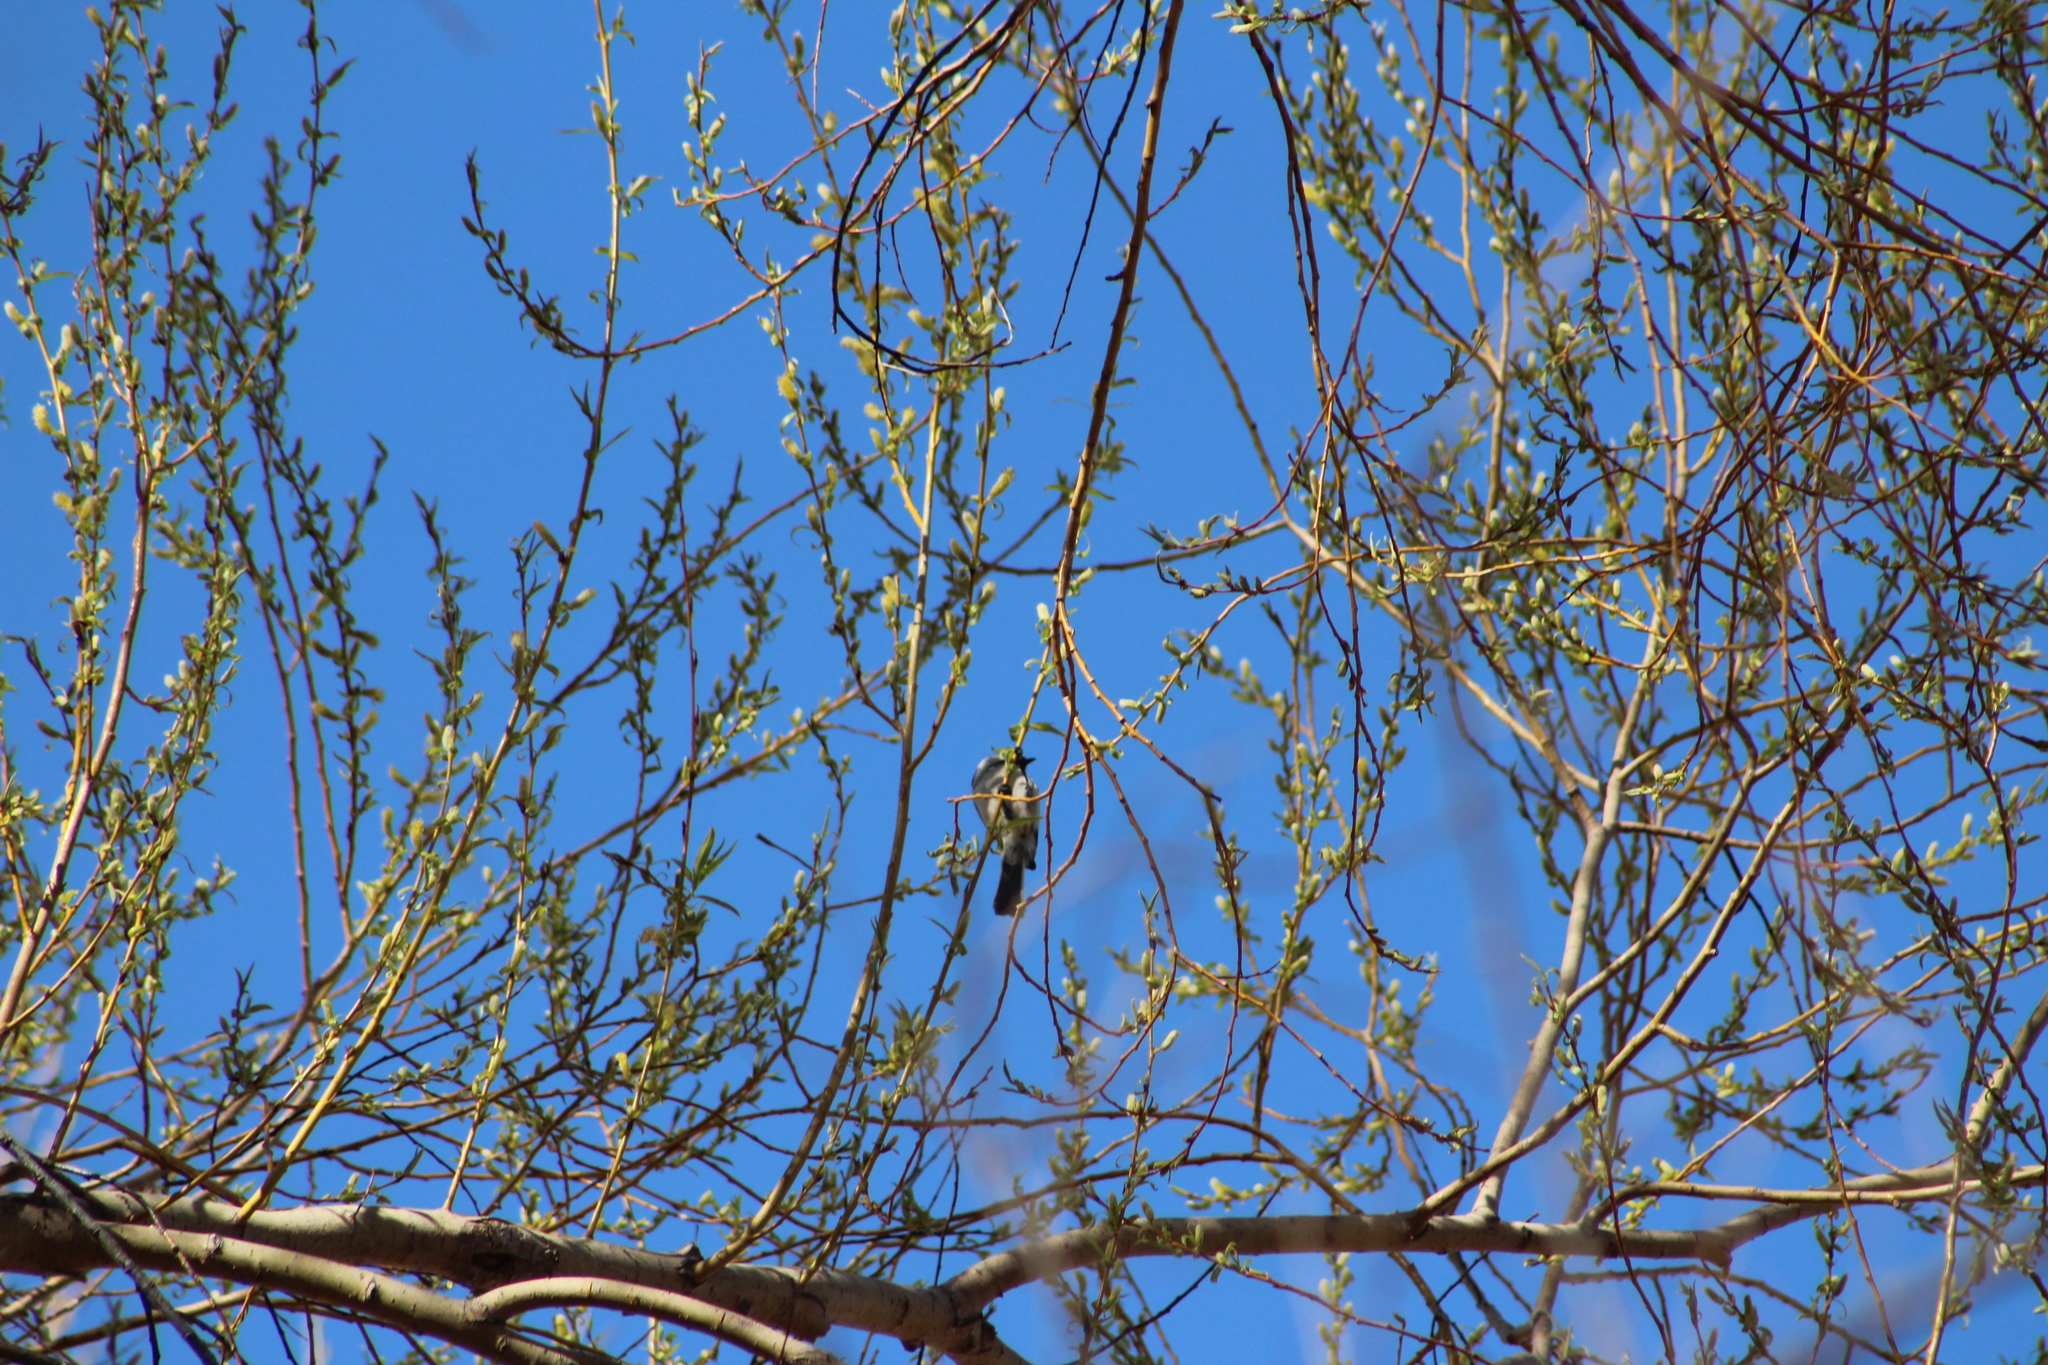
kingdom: Animalia
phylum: Chordata
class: Aves
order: Passeriformes
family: Paridae
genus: Poecile
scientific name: Poecile atricapillus
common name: Black-capped chickadee
